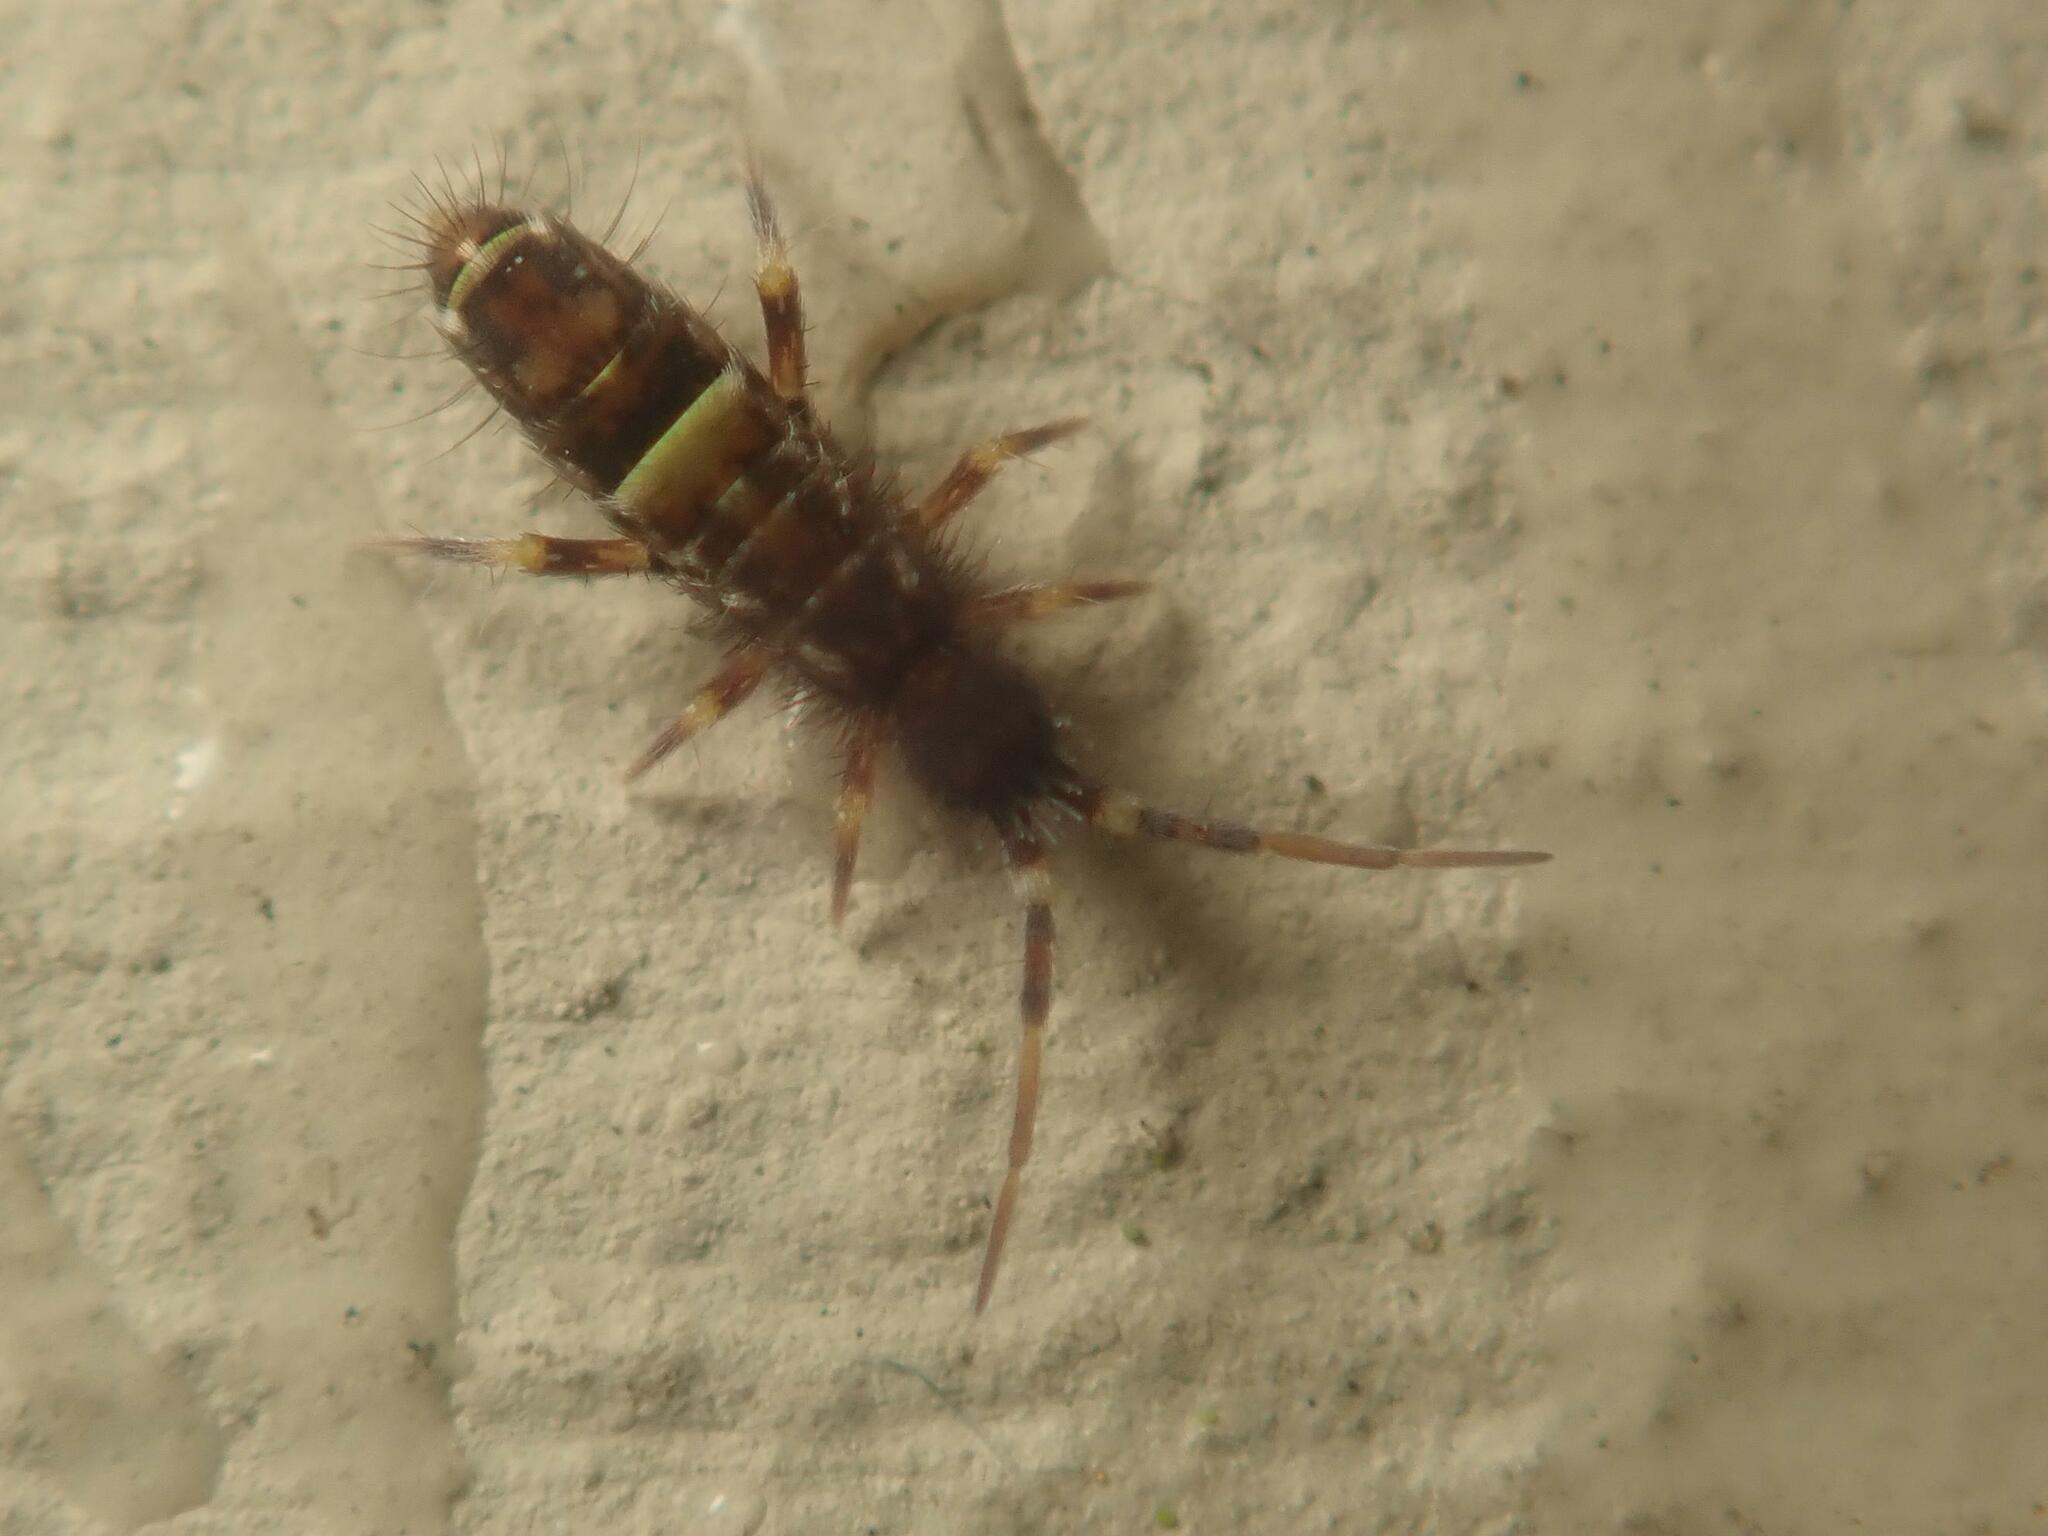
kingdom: Animalia
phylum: Arthropoda
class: Collembola
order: Entomobryomorpha
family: Orchesellidae
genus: Orchesella
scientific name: Orchesella cincta
